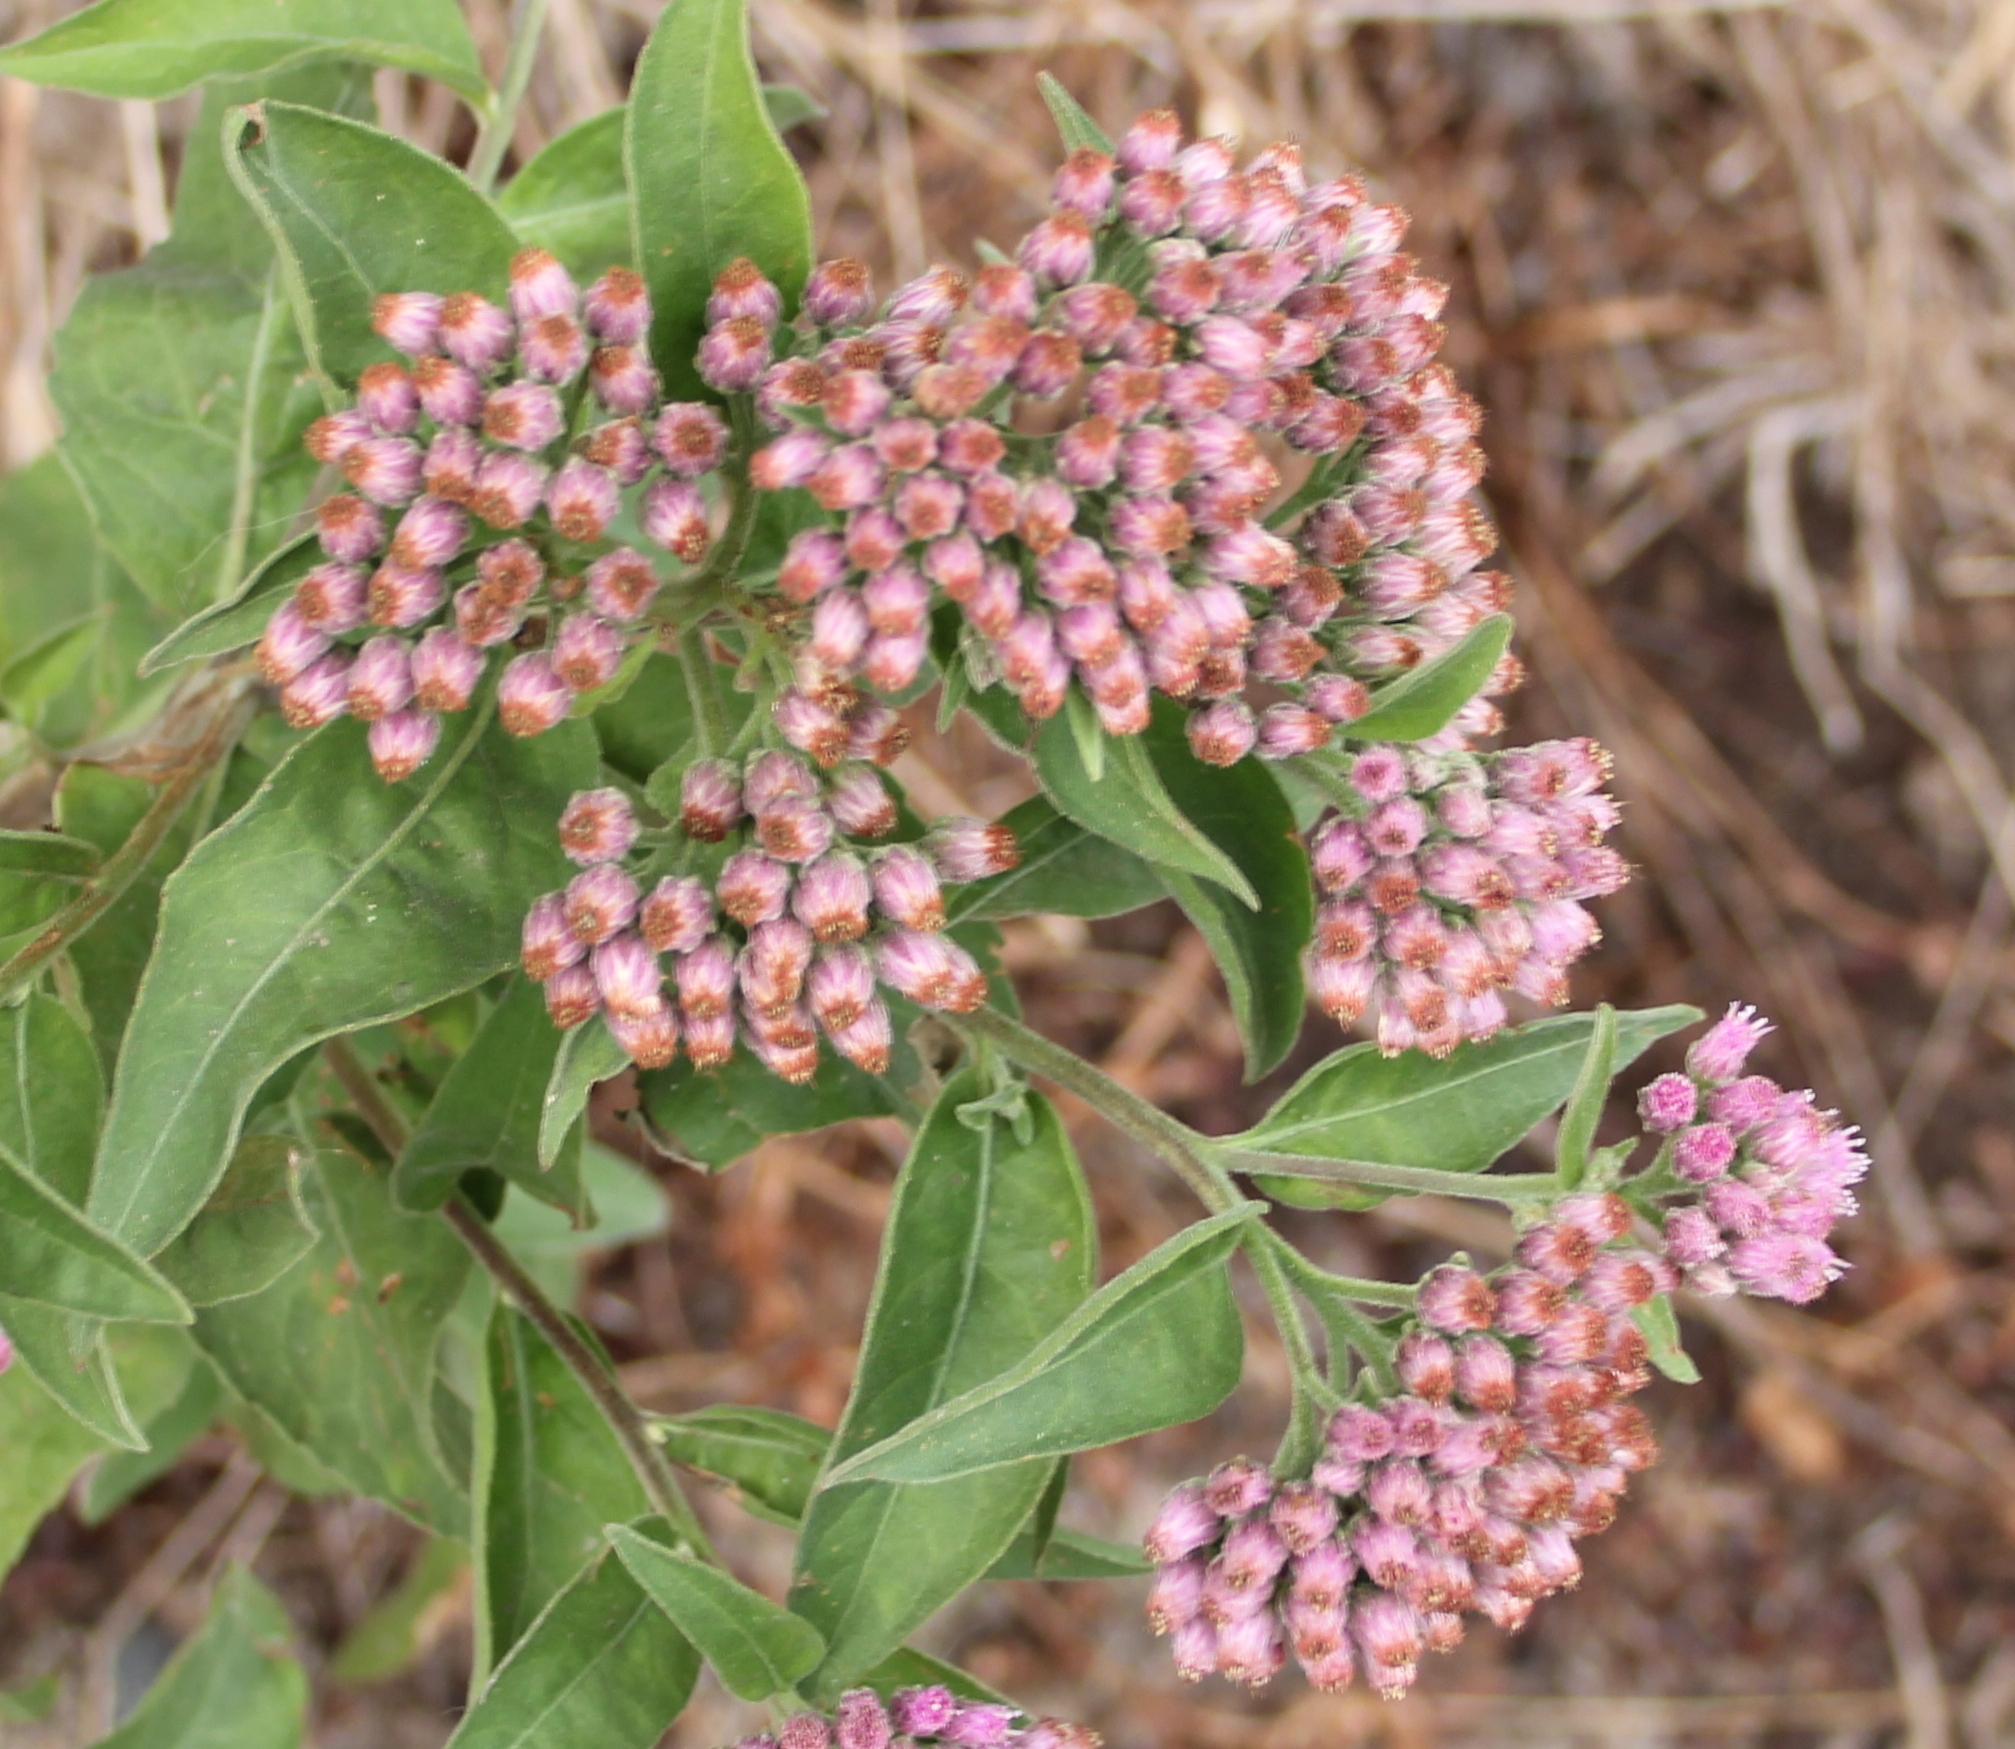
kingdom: Plantae
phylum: Tracheophyta
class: Magnoliopsida
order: Asterales
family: Asteraceae
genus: Pluchea
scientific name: Pluchea odorata
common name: Saltmarsh fleabane
